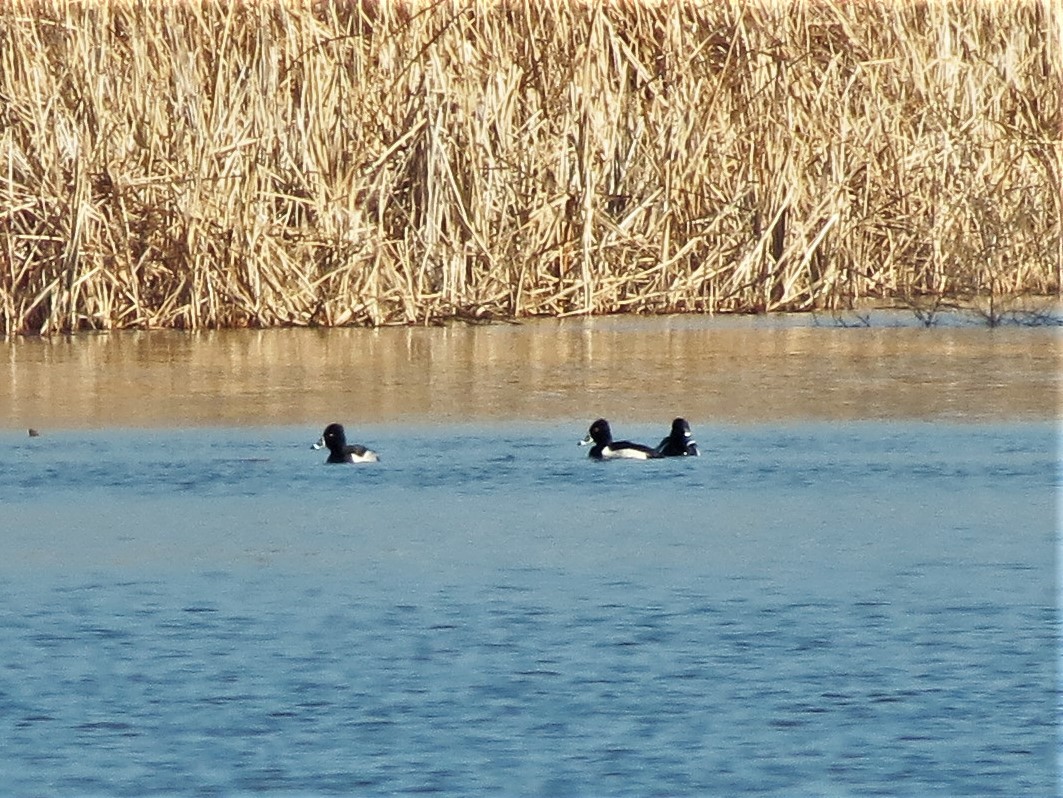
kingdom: Animalia
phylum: Chordata
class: Aves
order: Anseriformes
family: Anatidae
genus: Aythya
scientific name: Aythya collaris
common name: Ring-necked duck
